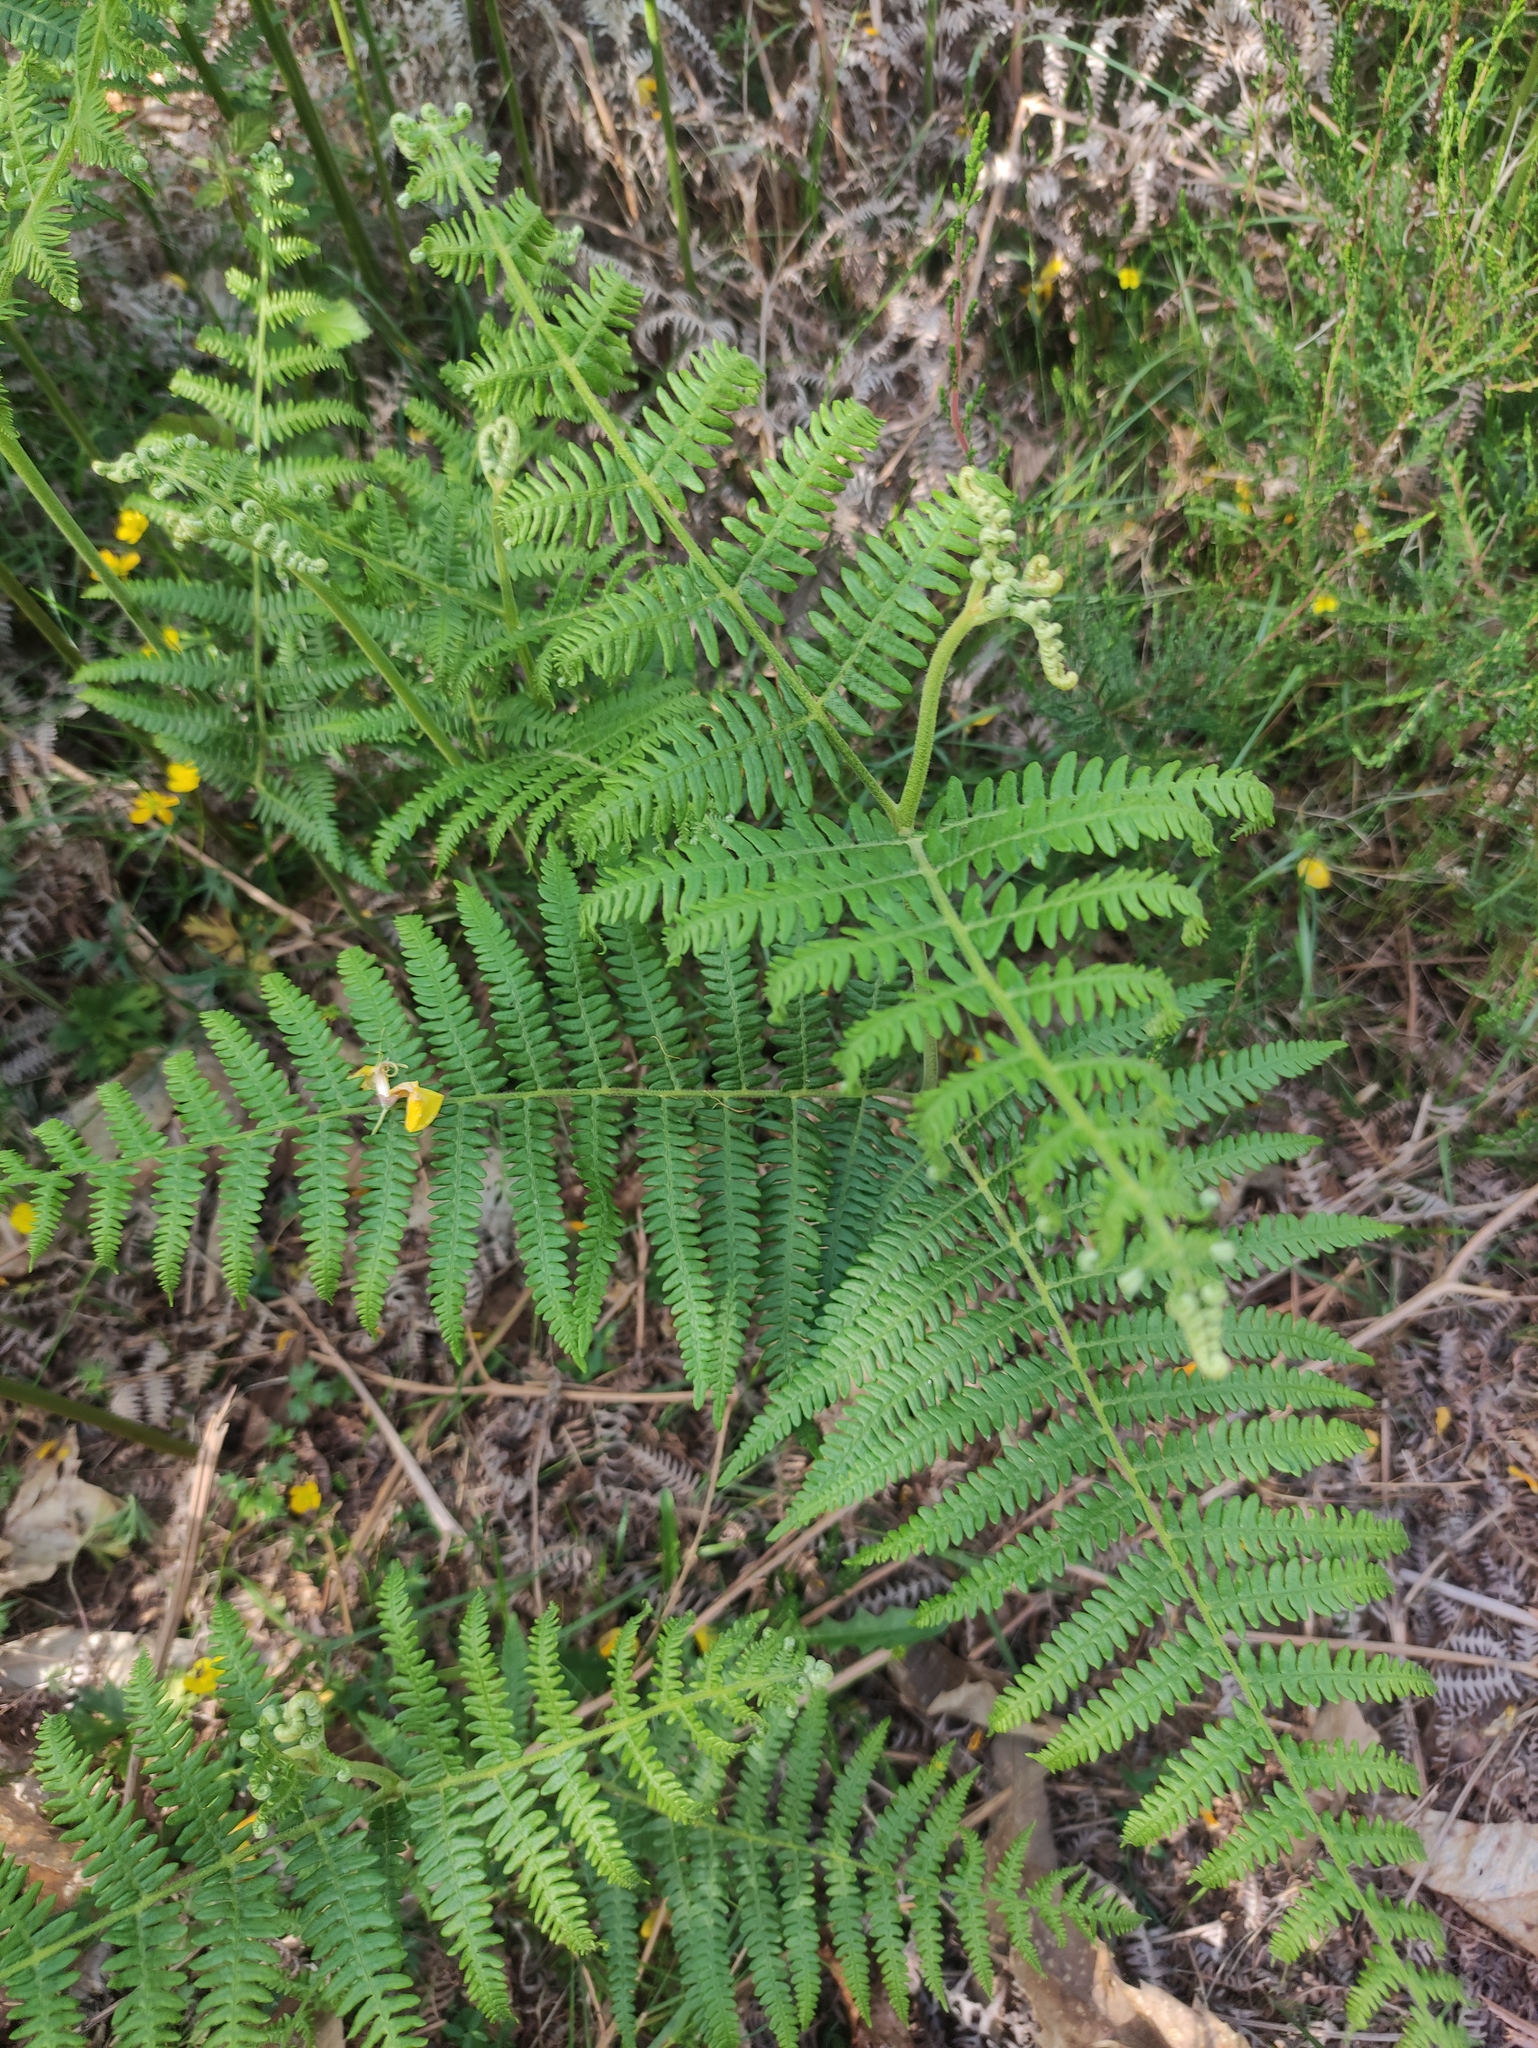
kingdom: Plantae
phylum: Tracheophyta
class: Polypodiopsida
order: Polypodiales
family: Dennstaedtiaceae
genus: Pteridium
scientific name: Pteridium aquilinum
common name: Bracken
